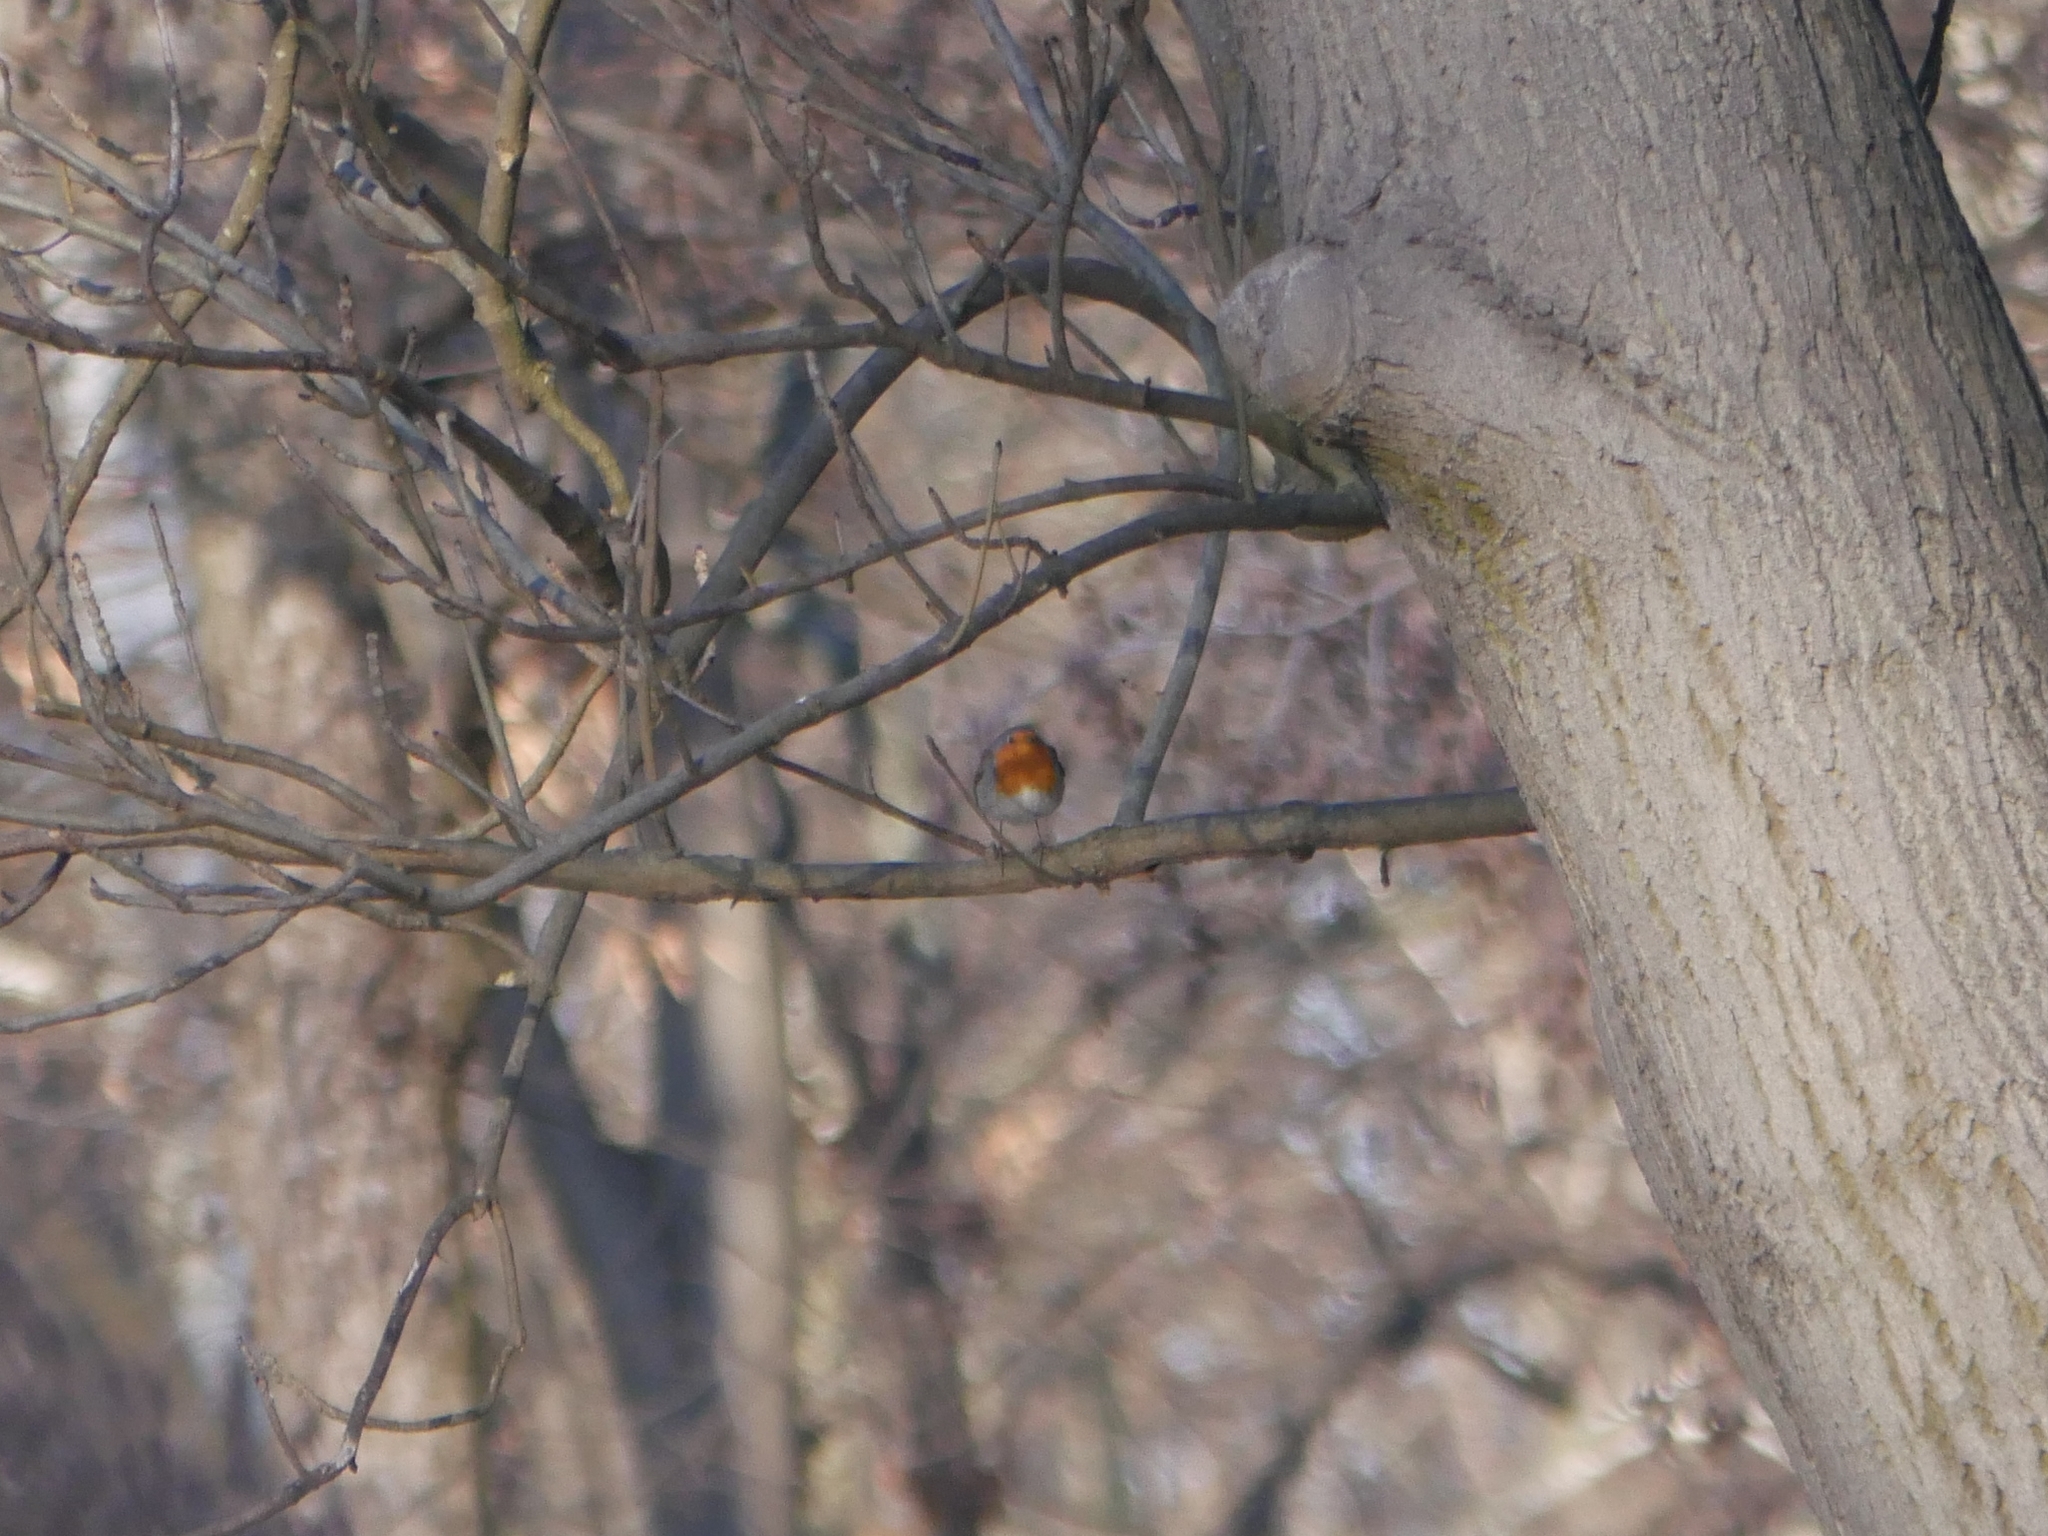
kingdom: Animalia
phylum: Chordata
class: Aves
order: Passeriformes
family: Muscicapidae
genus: Erithacus
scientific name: Erithacus rubecula
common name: European robin
